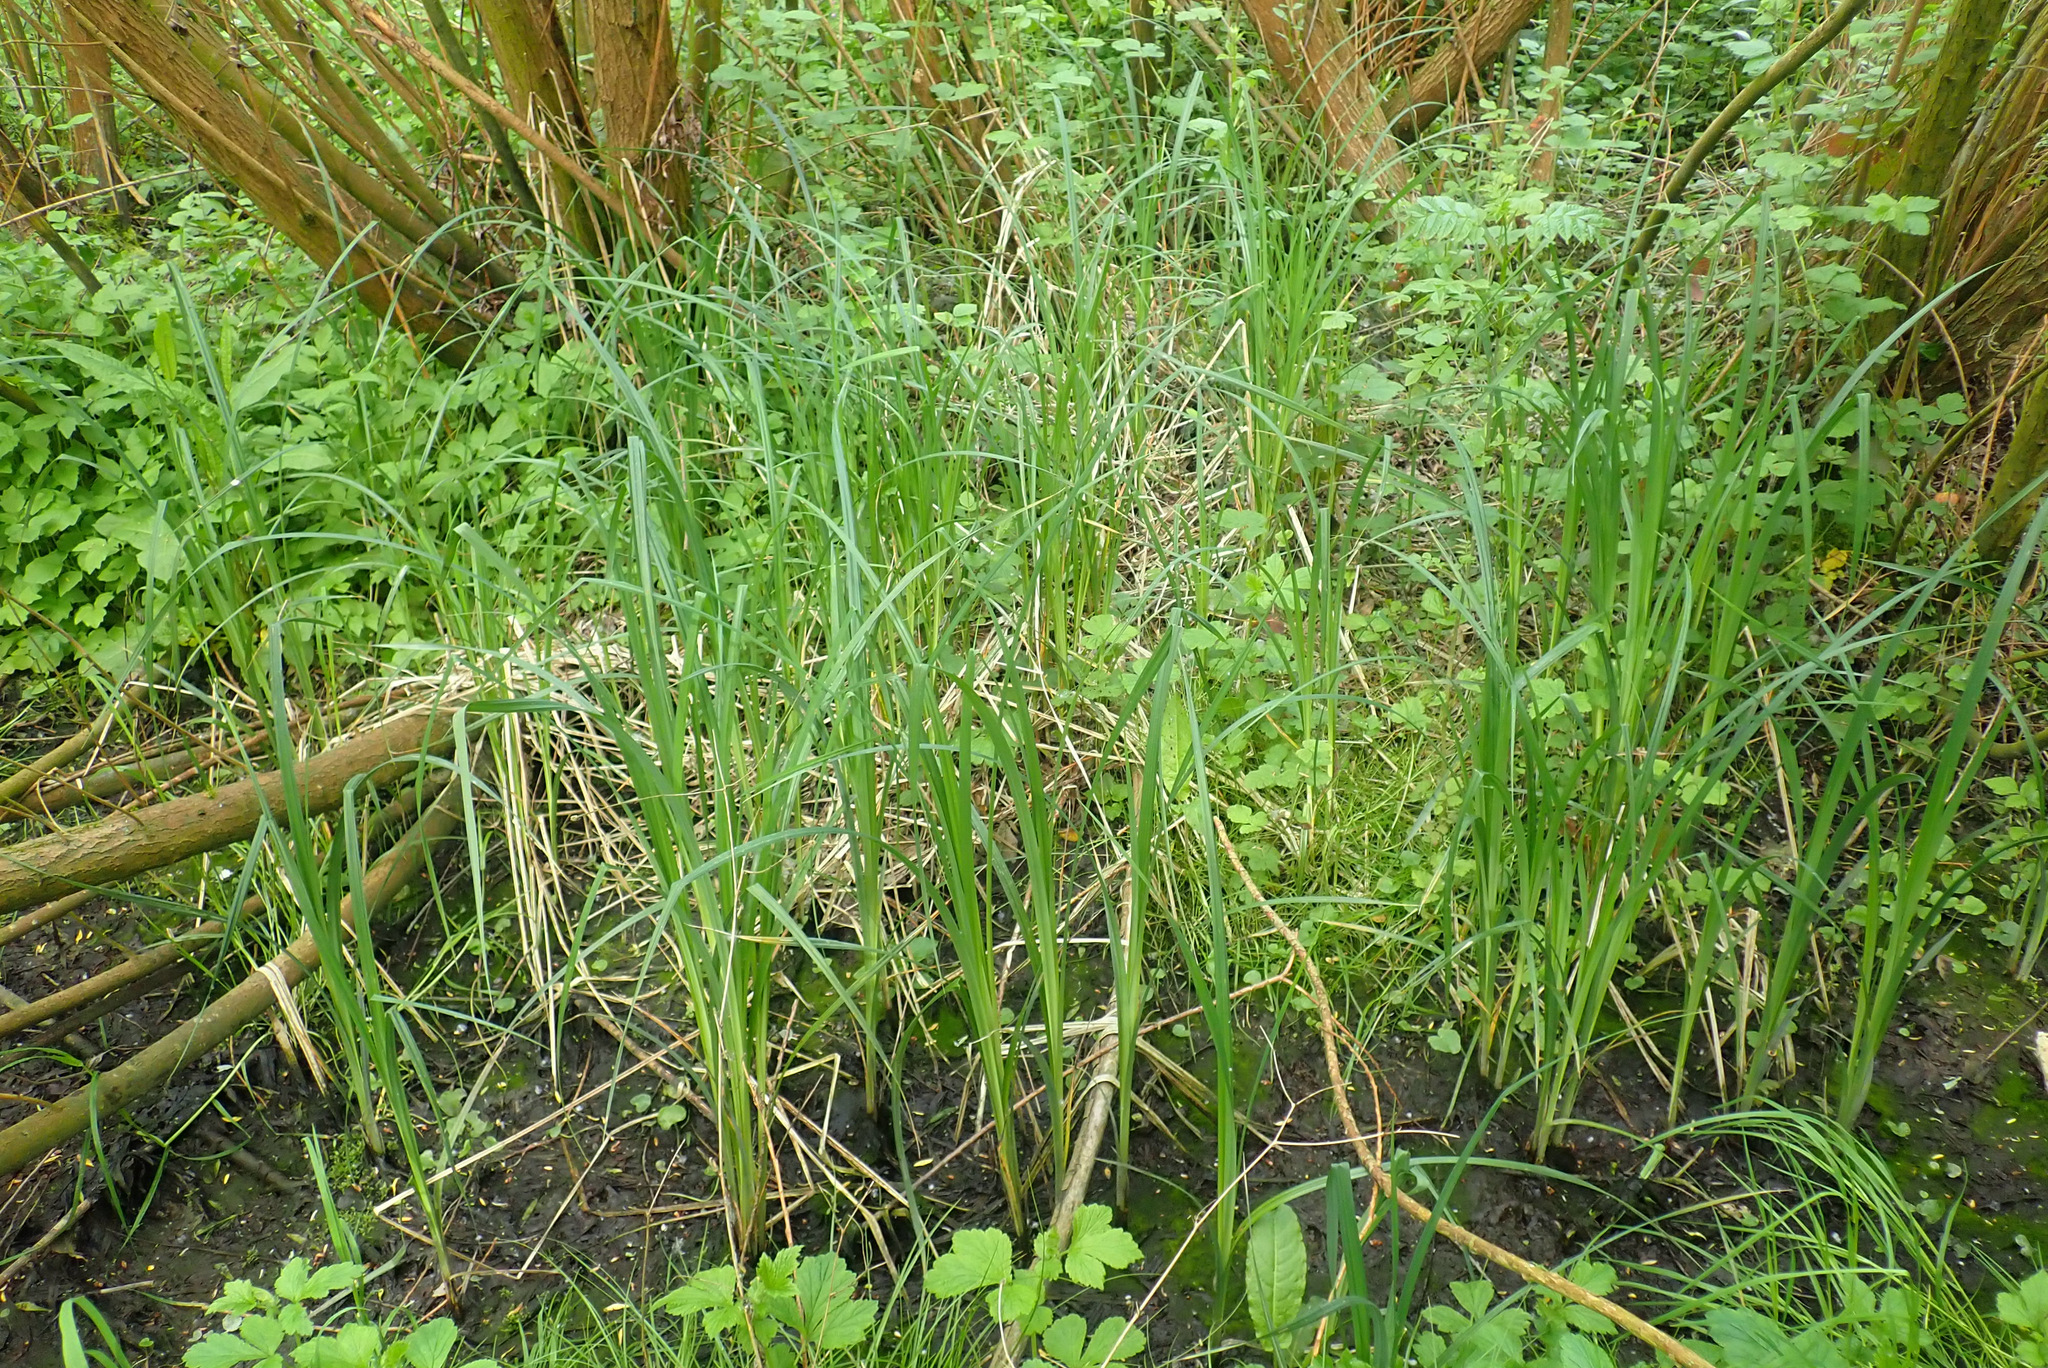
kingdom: Plantae
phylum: Tracheophyta
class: Liliopsida
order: Poales
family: Cyperaceae
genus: Carex
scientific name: Carex acutiformis
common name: Lesser pond-sedge
